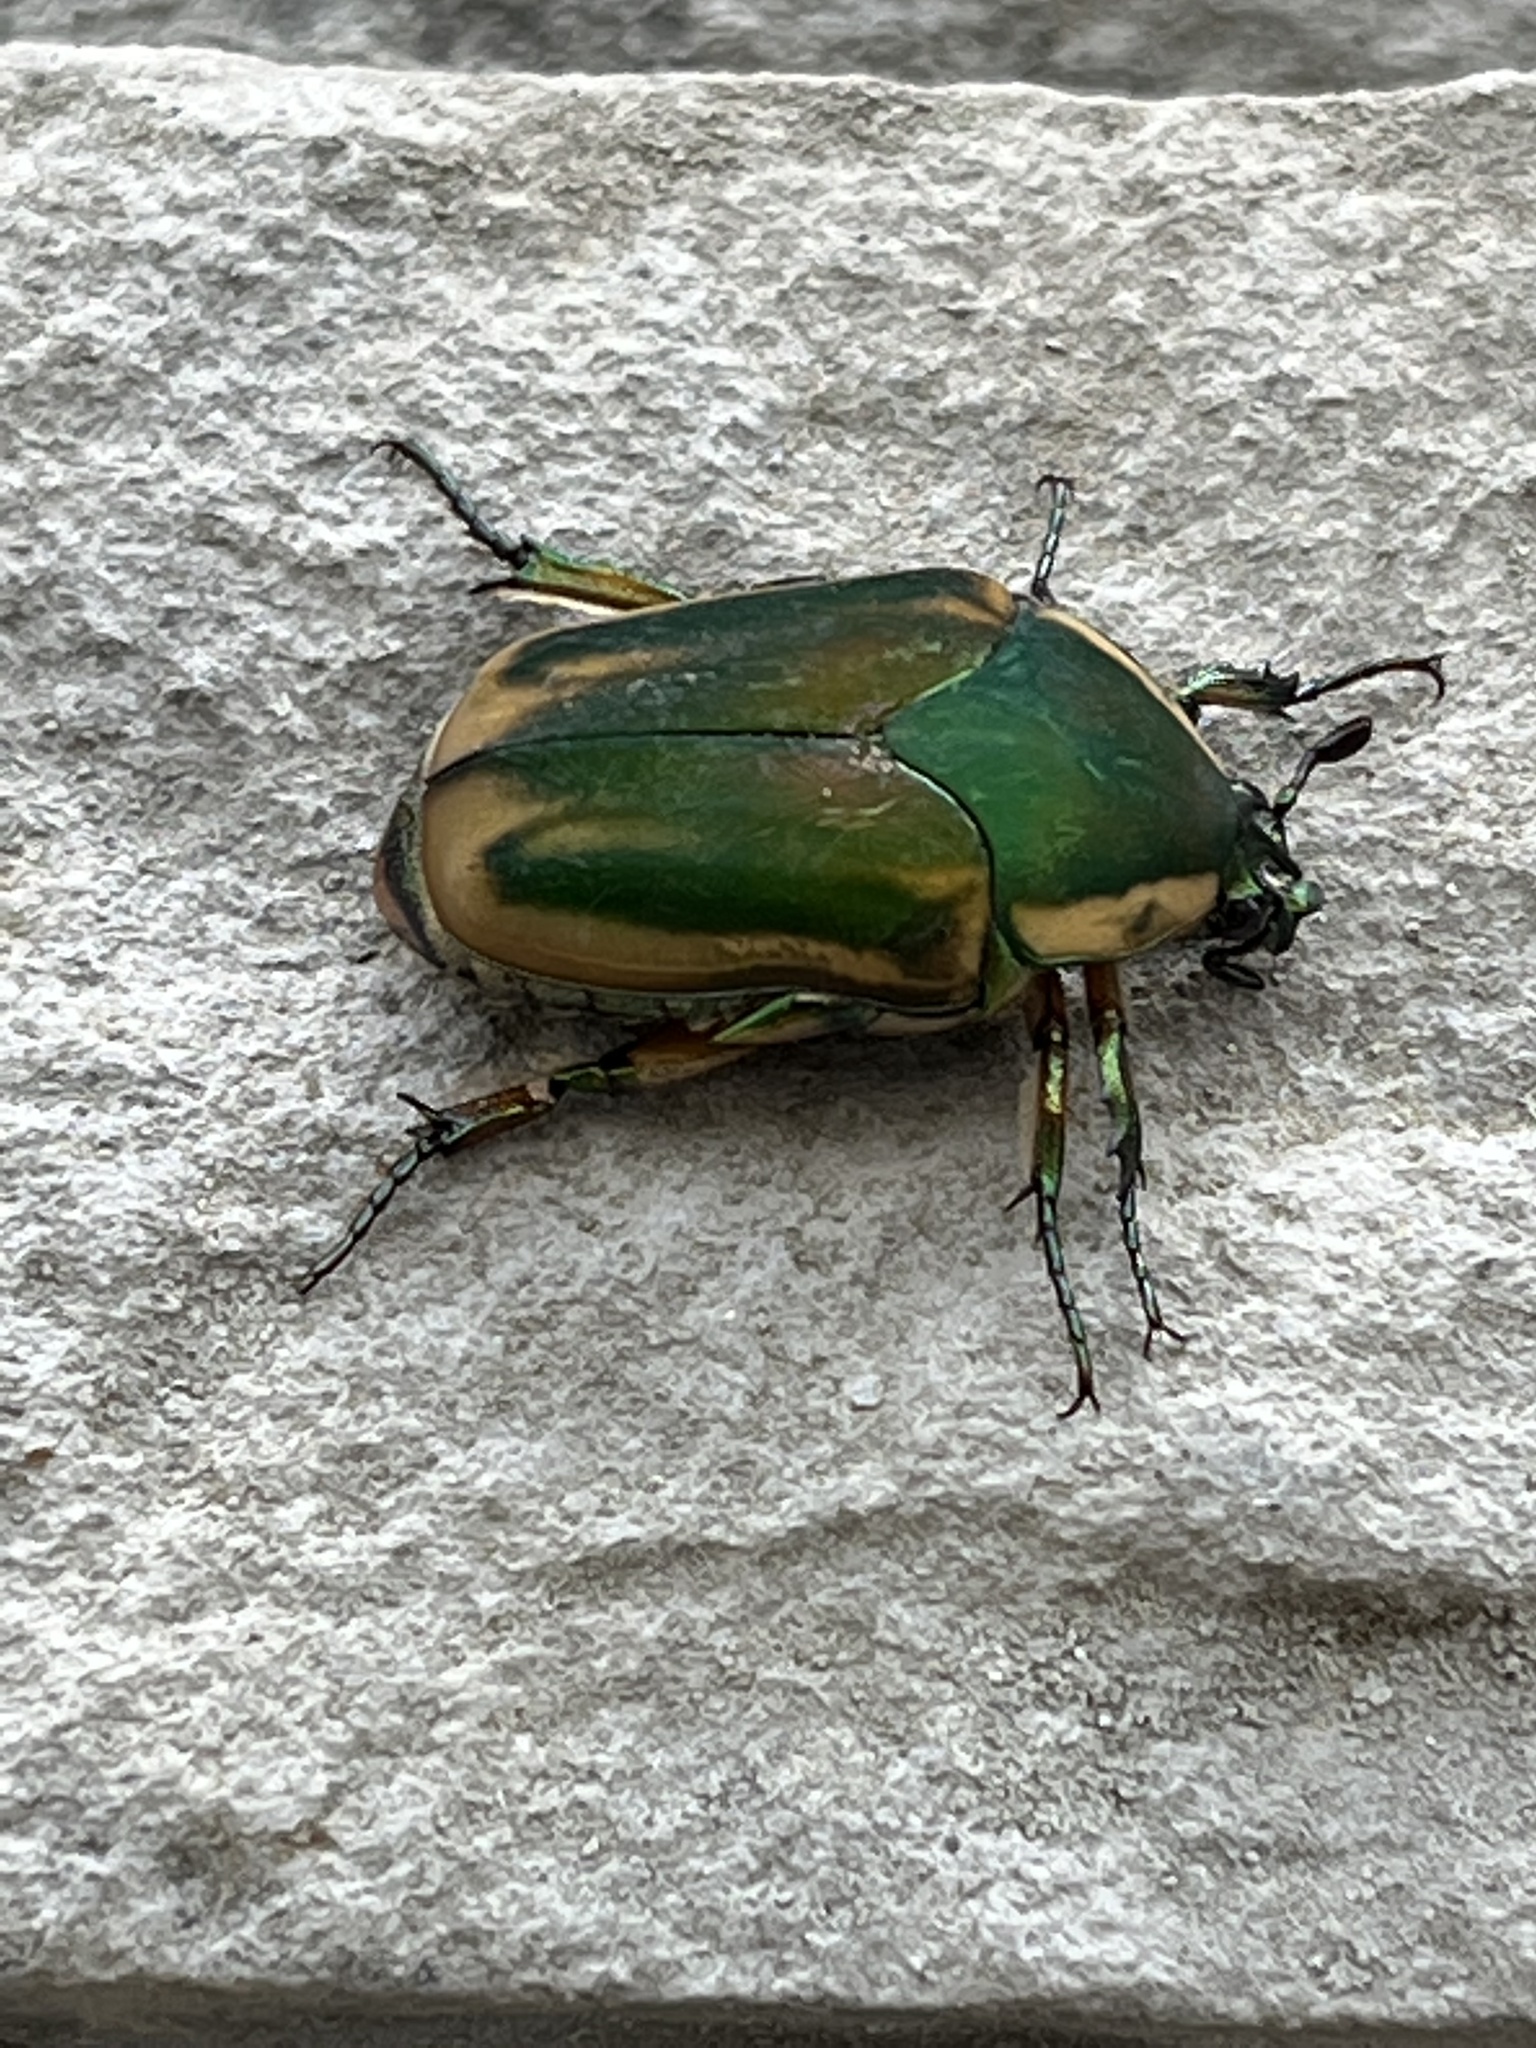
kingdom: Animalia
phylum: Arthropoda
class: Insecta
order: Coleoptera
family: Scarabaeidae
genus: Cotinis
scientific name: Cotinis nitida
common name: Common green june beetle
